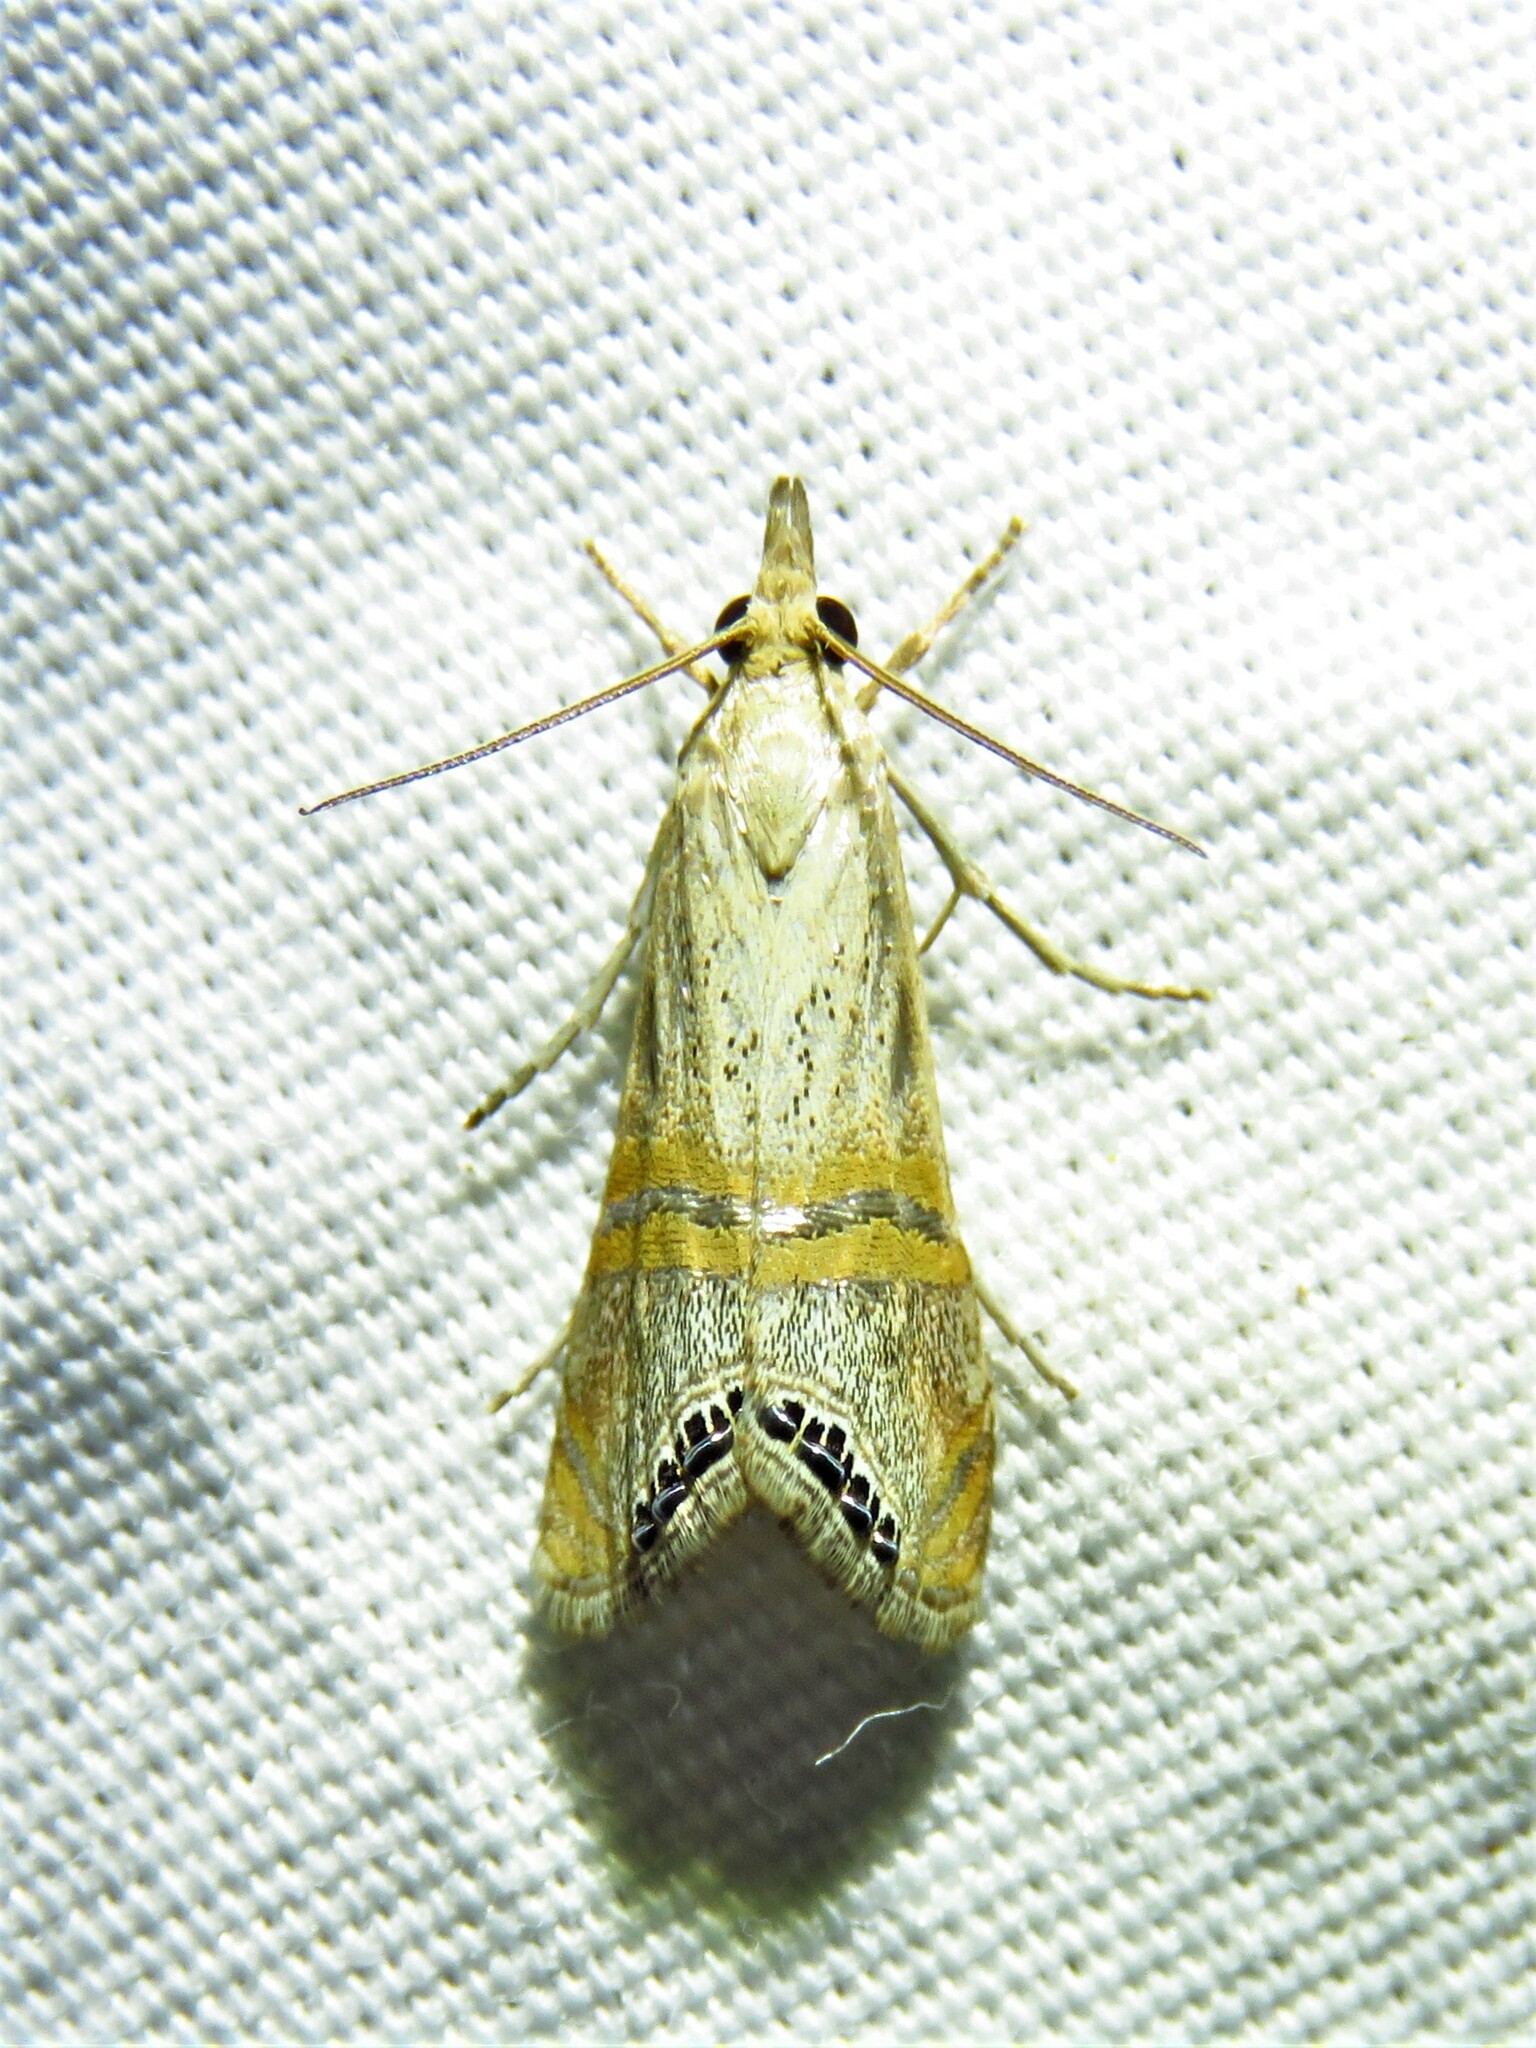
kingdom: Animalia
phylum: Arthropoda
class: Insecta
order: Lepidoptera
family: Crambidae
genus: Euchromius
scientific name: Euchromius ocellea
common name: Necklace veneer moth
